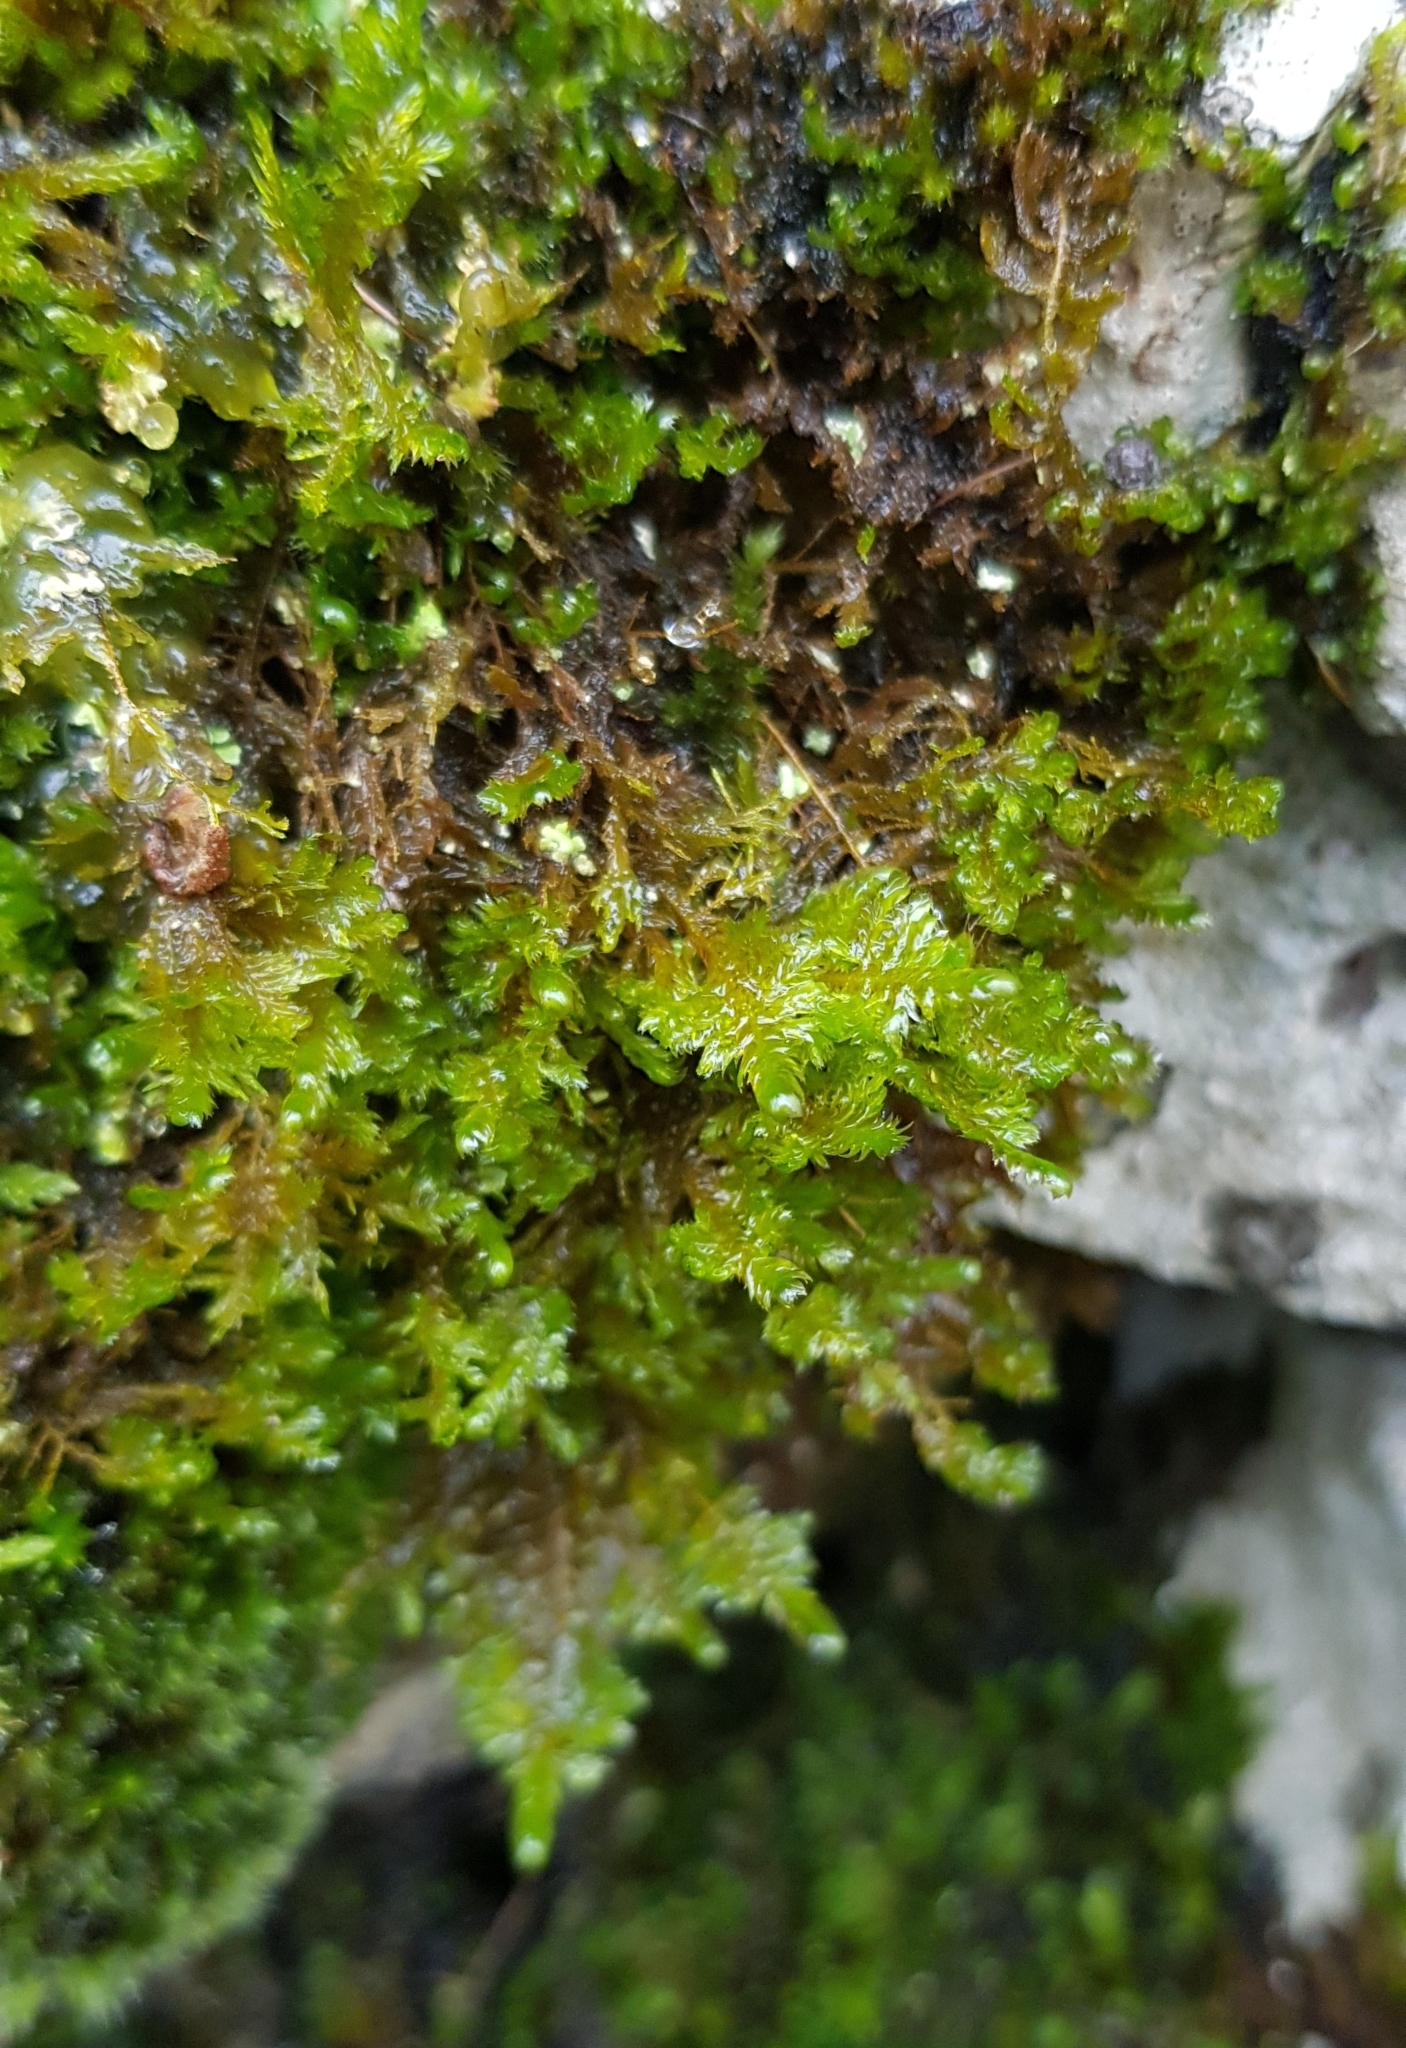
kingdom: Plantae
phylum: Bryophyta
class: Bryopsida
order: Hypnales
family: Neckeraceae
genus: Alleniella
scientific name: Alleniella complanata
